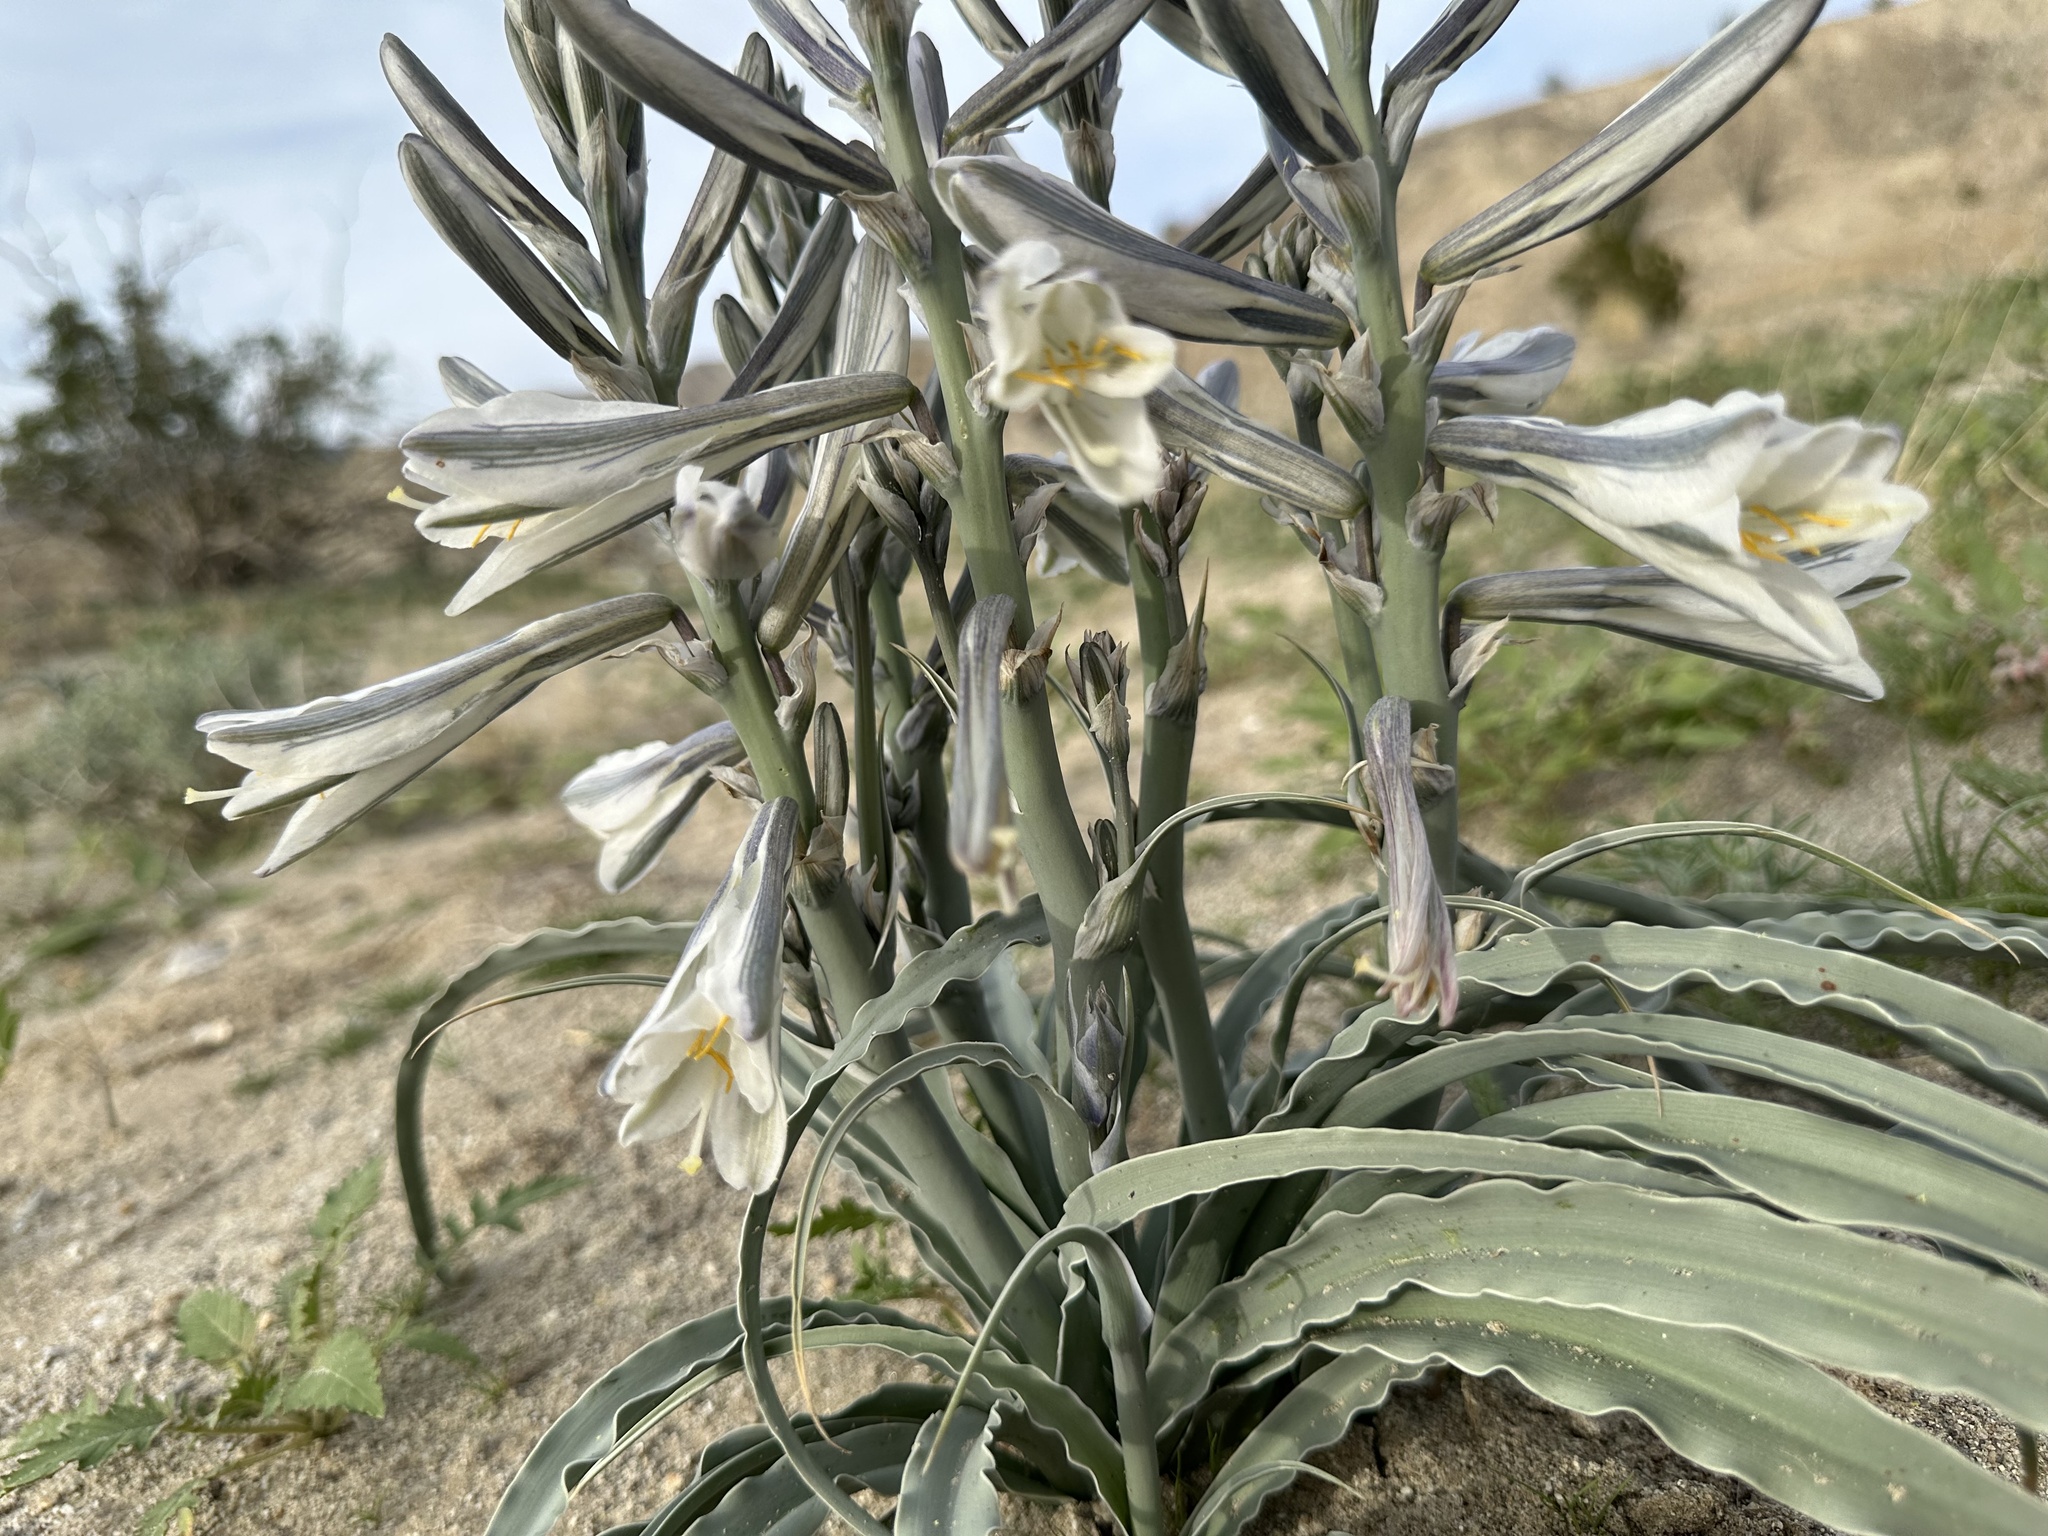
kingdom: Plantae
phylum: Tracheophyta
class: Liliopsida
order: Asparagales
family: Asparagaceae
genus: Hesperocallis
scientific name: Hesperocallis undulata
